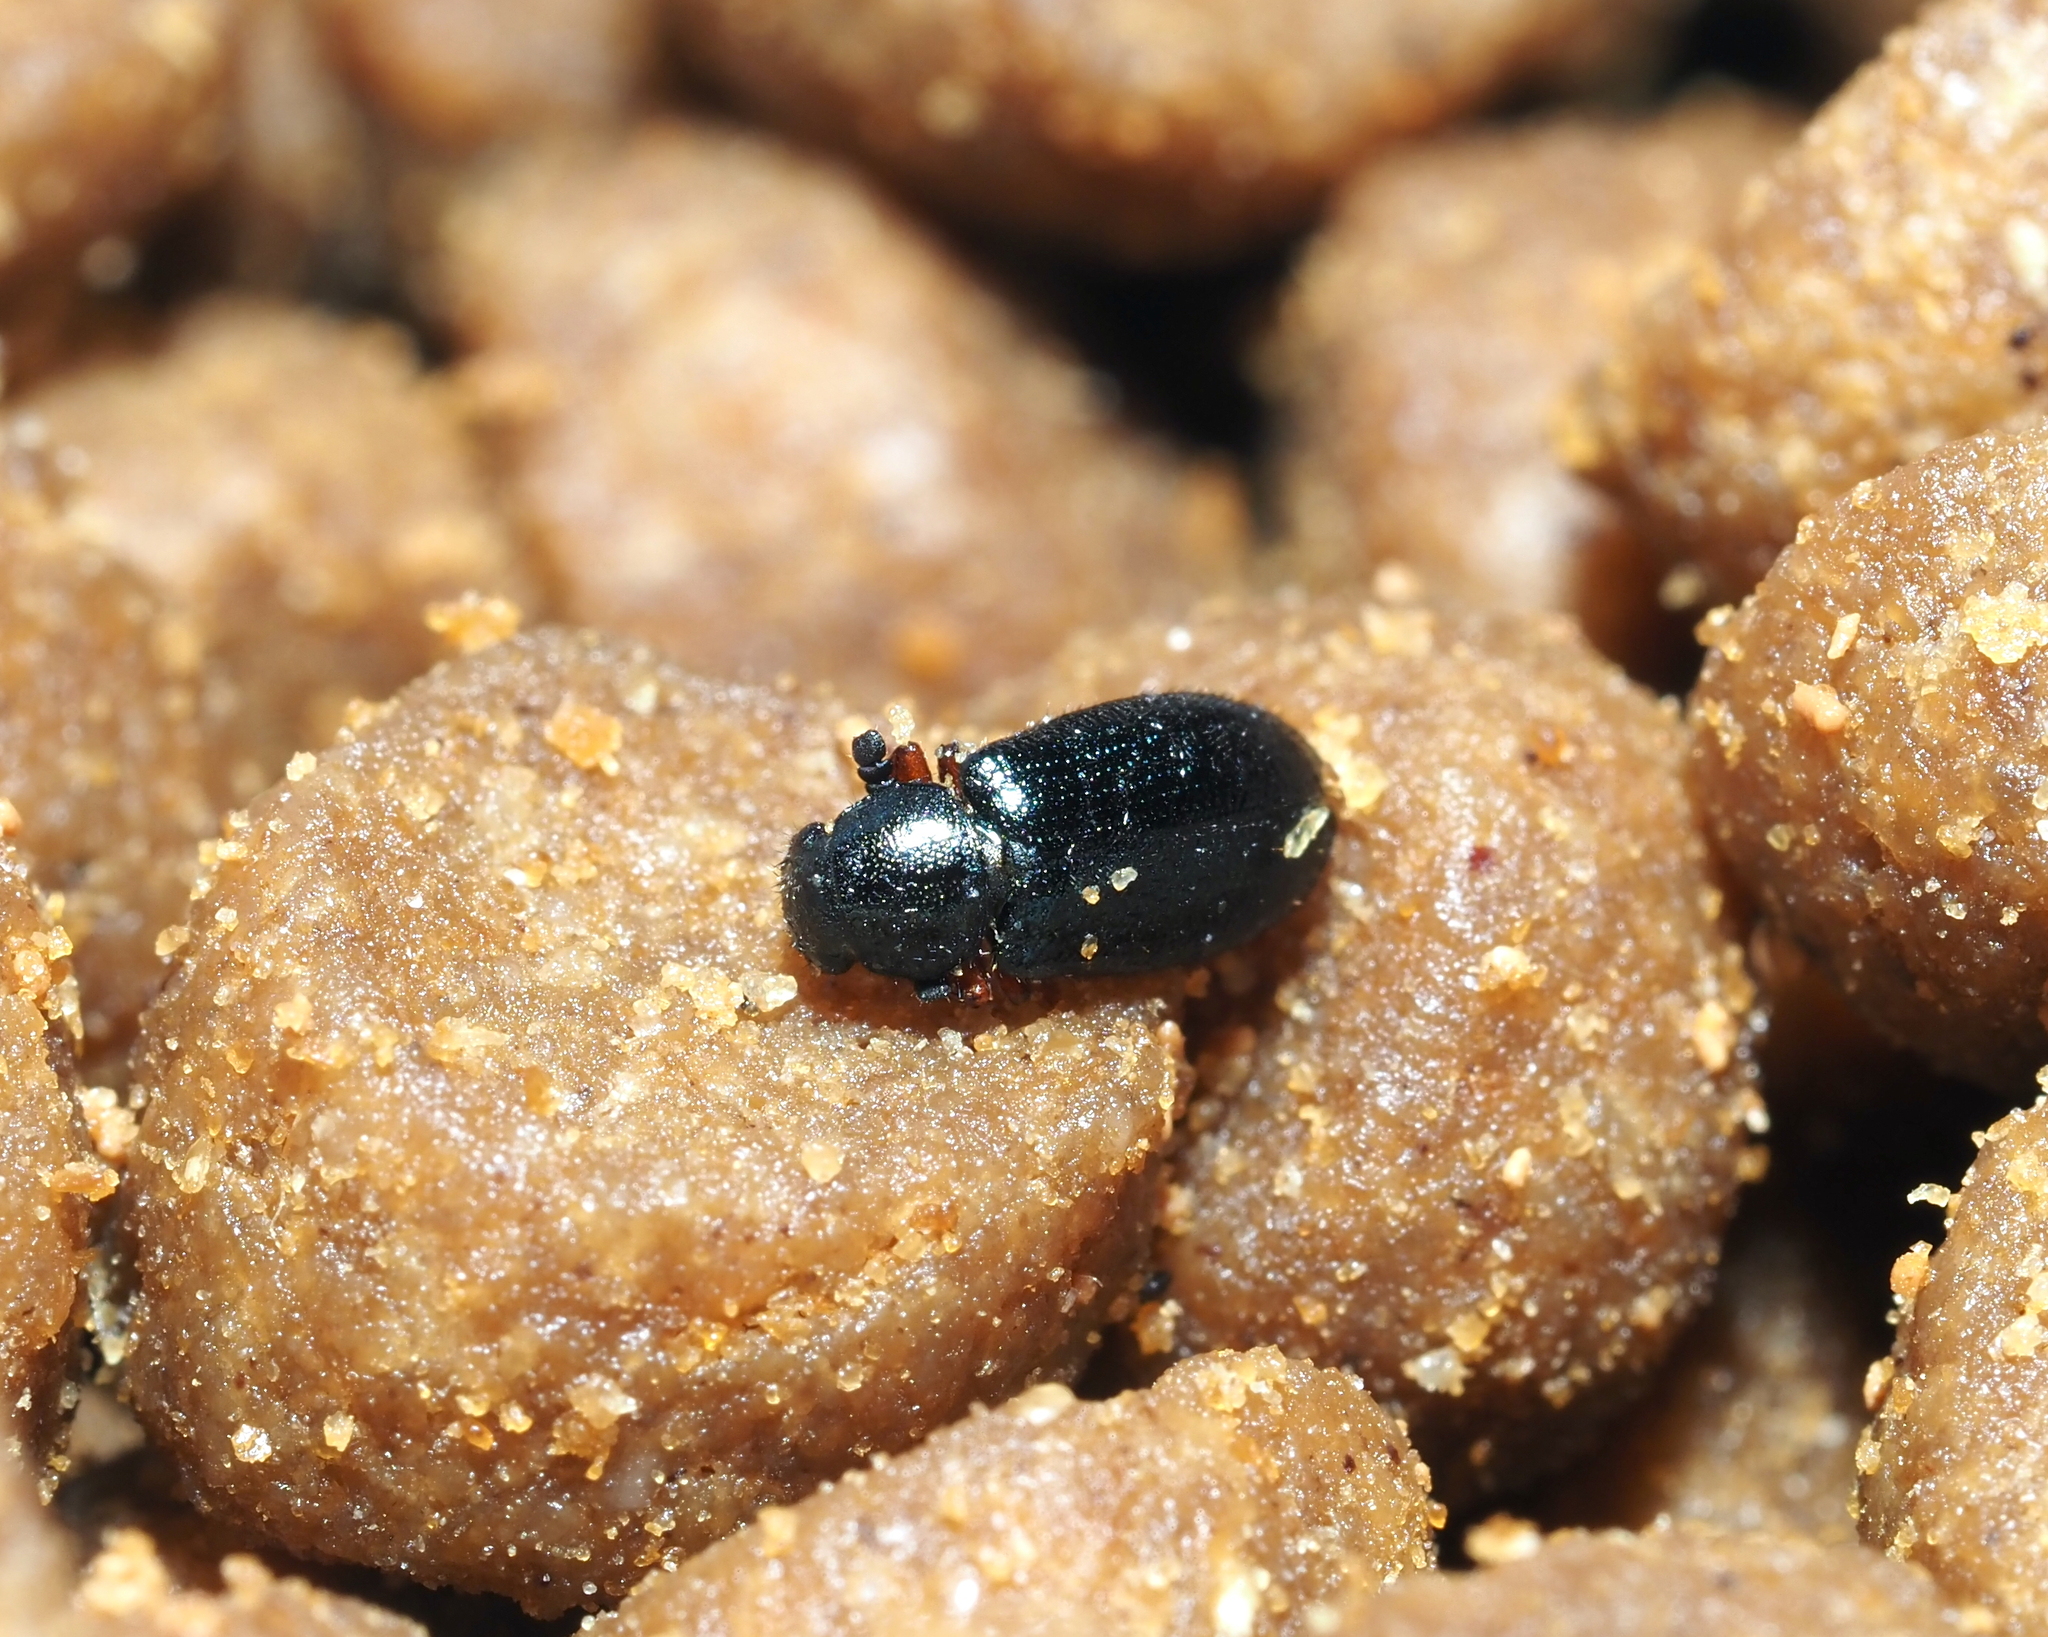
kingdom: Animalia
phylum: Arthropoda
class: Insecta
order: Coleoptera
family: Cleridae
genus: Necrobia
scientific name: Necrobia rufipes
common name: Red-legged ham beetle
